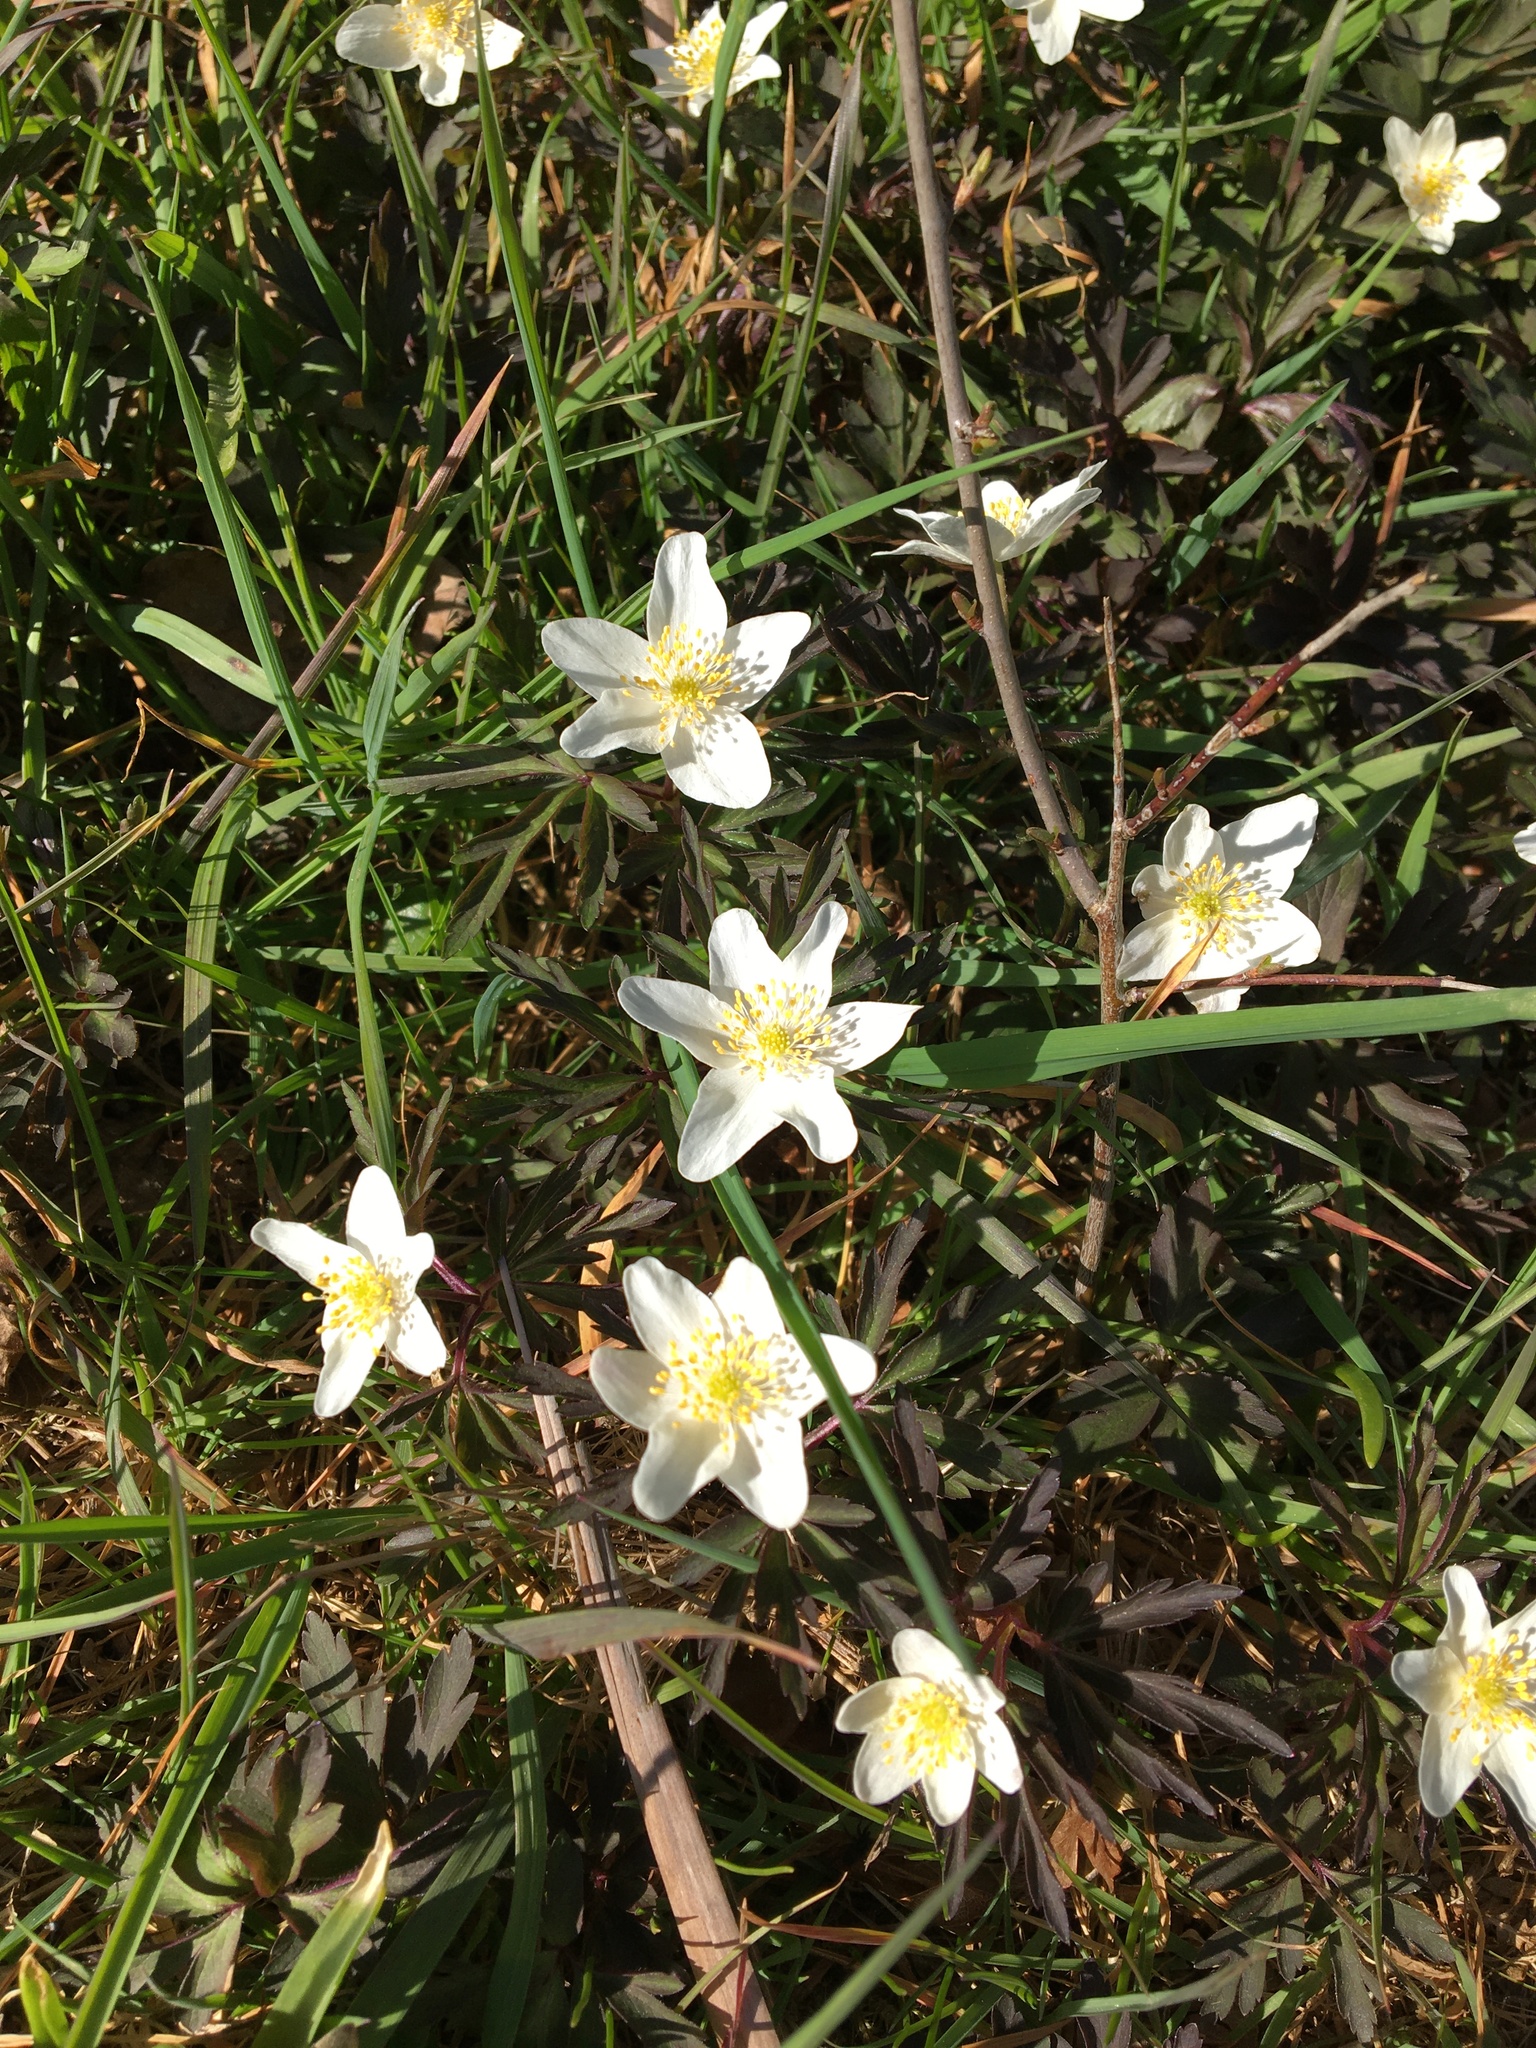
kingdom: Plantae
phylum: Tracheophyta
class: Magnoliopsida
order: Ranunculales
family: Ranunculaceae
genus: Anemone
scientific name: Anemone nemorosa
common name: Wood anemone
